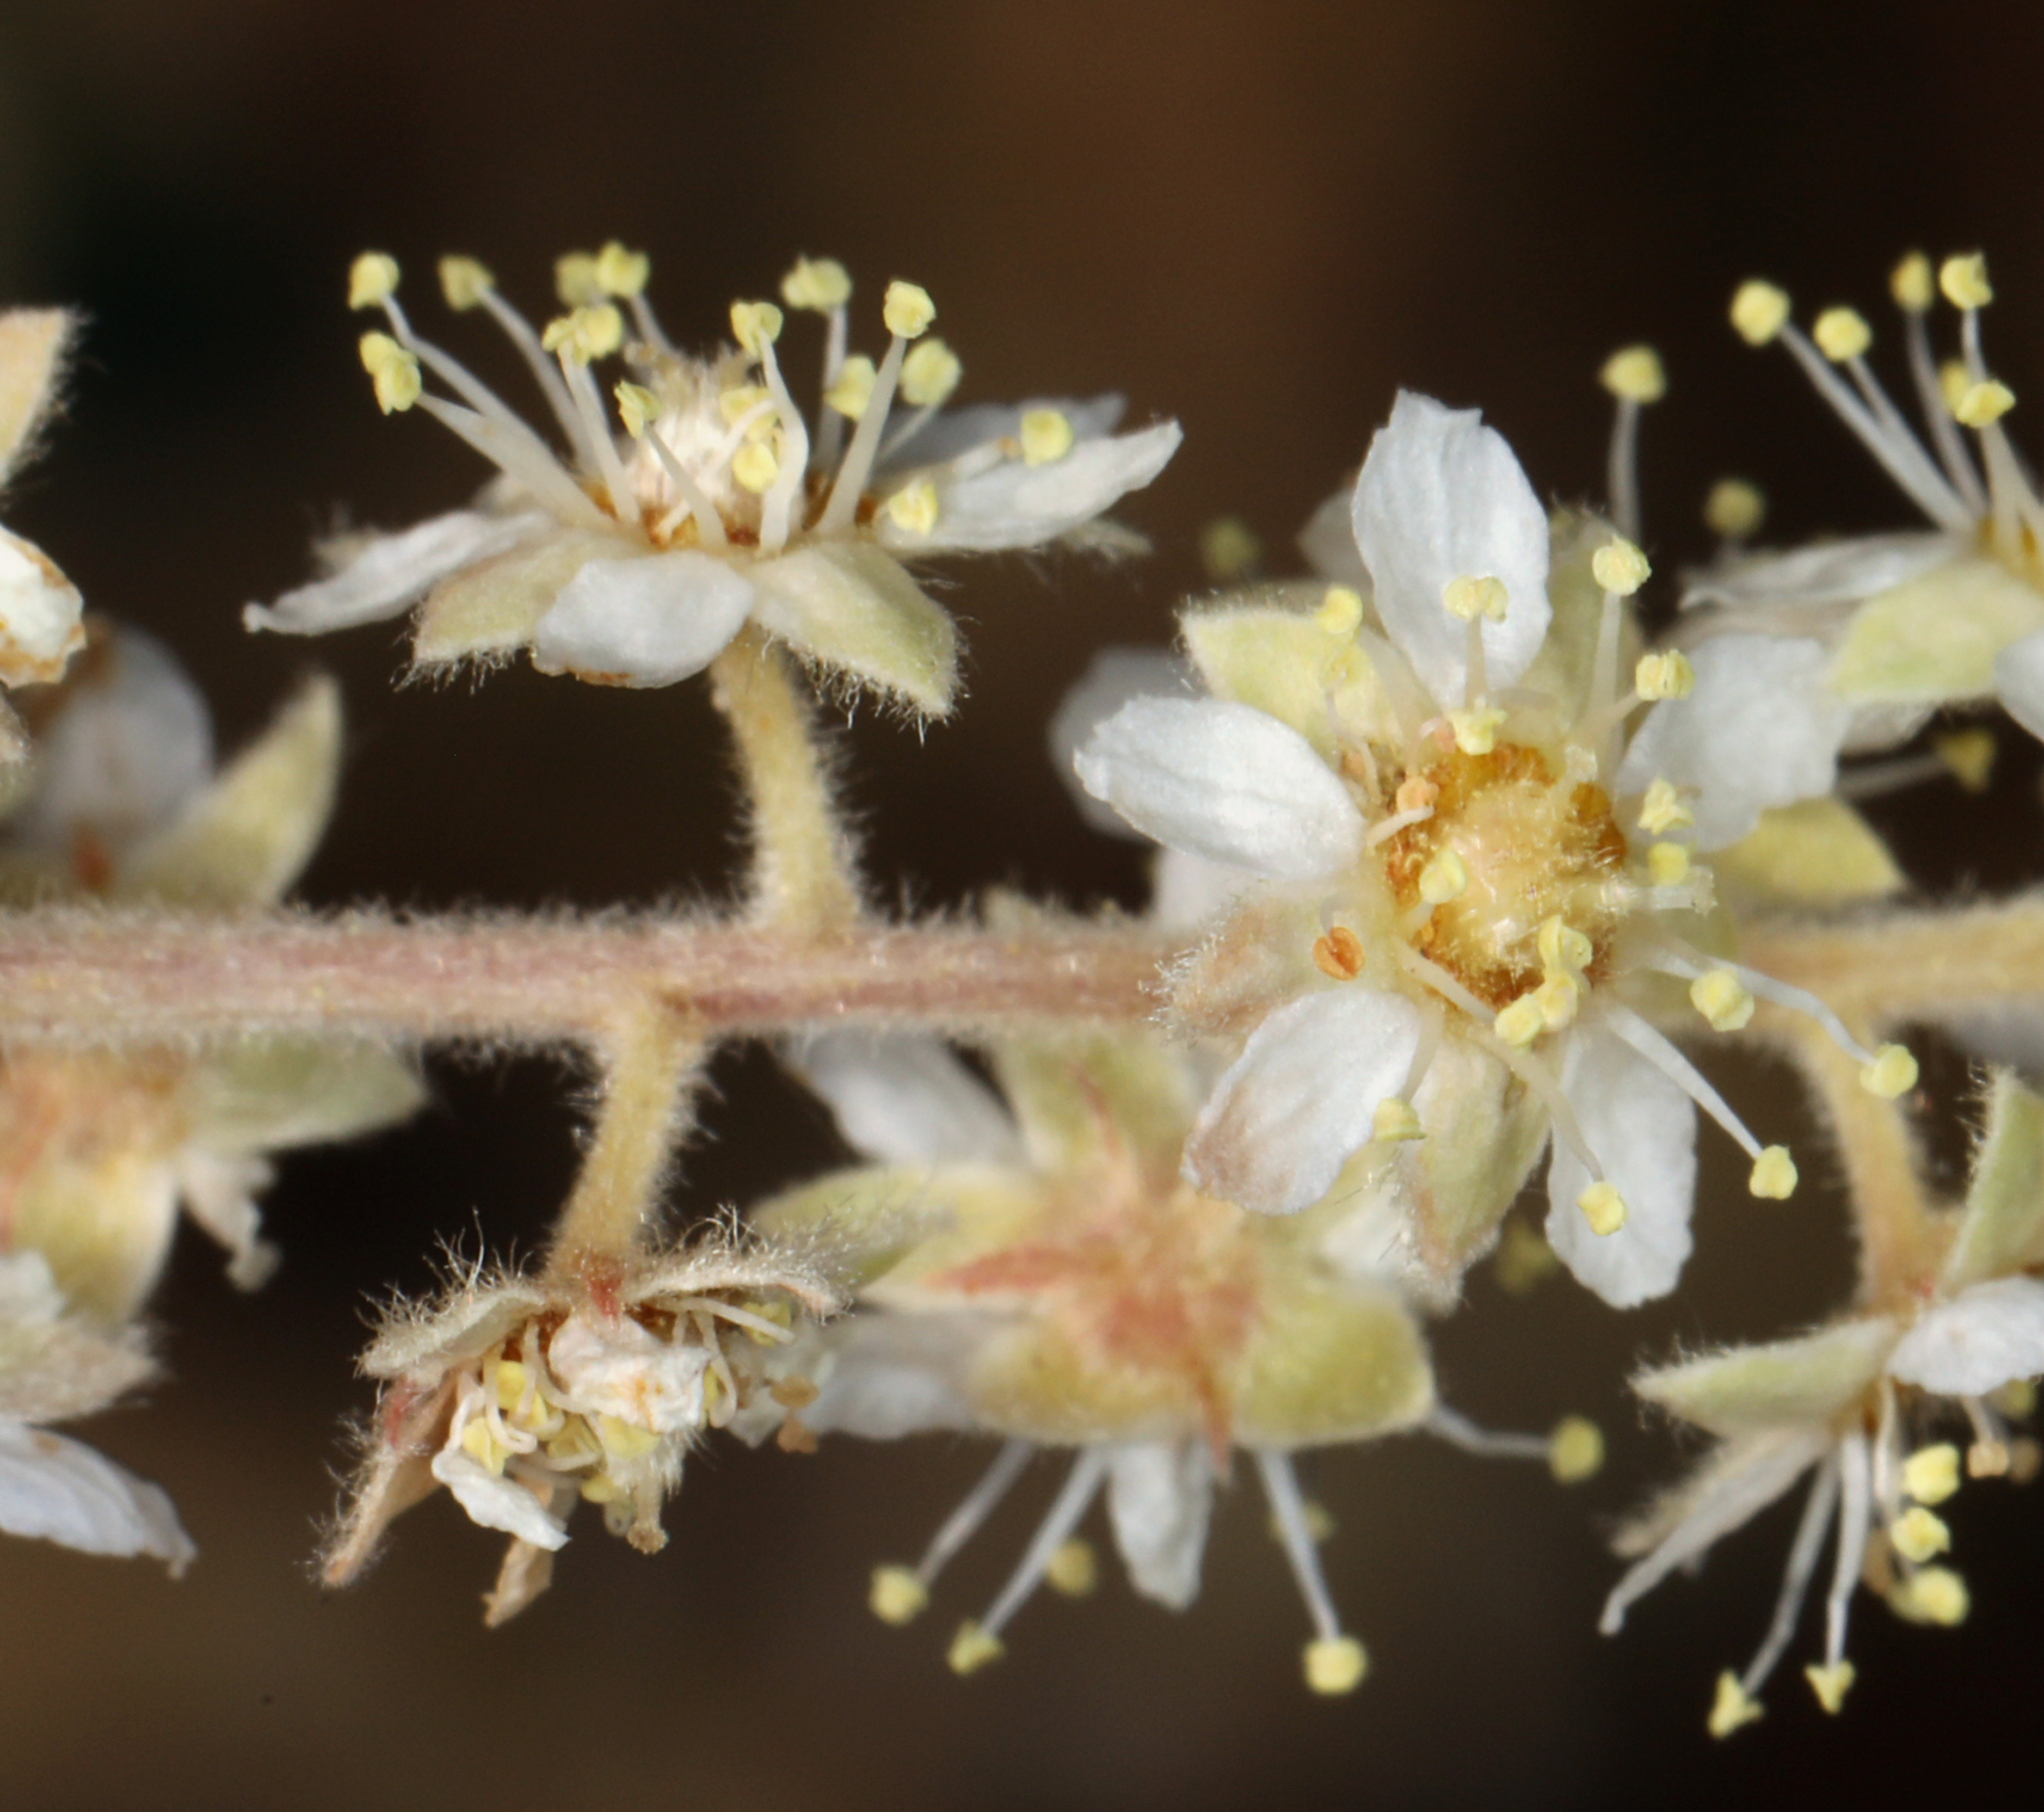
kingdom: Plantae
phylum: Tracheophyta
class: Magnoliopsida
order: Rosales
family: Rosaceae
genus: Holodiscus
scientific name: Holodiscus discolor
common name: Oceanspray
